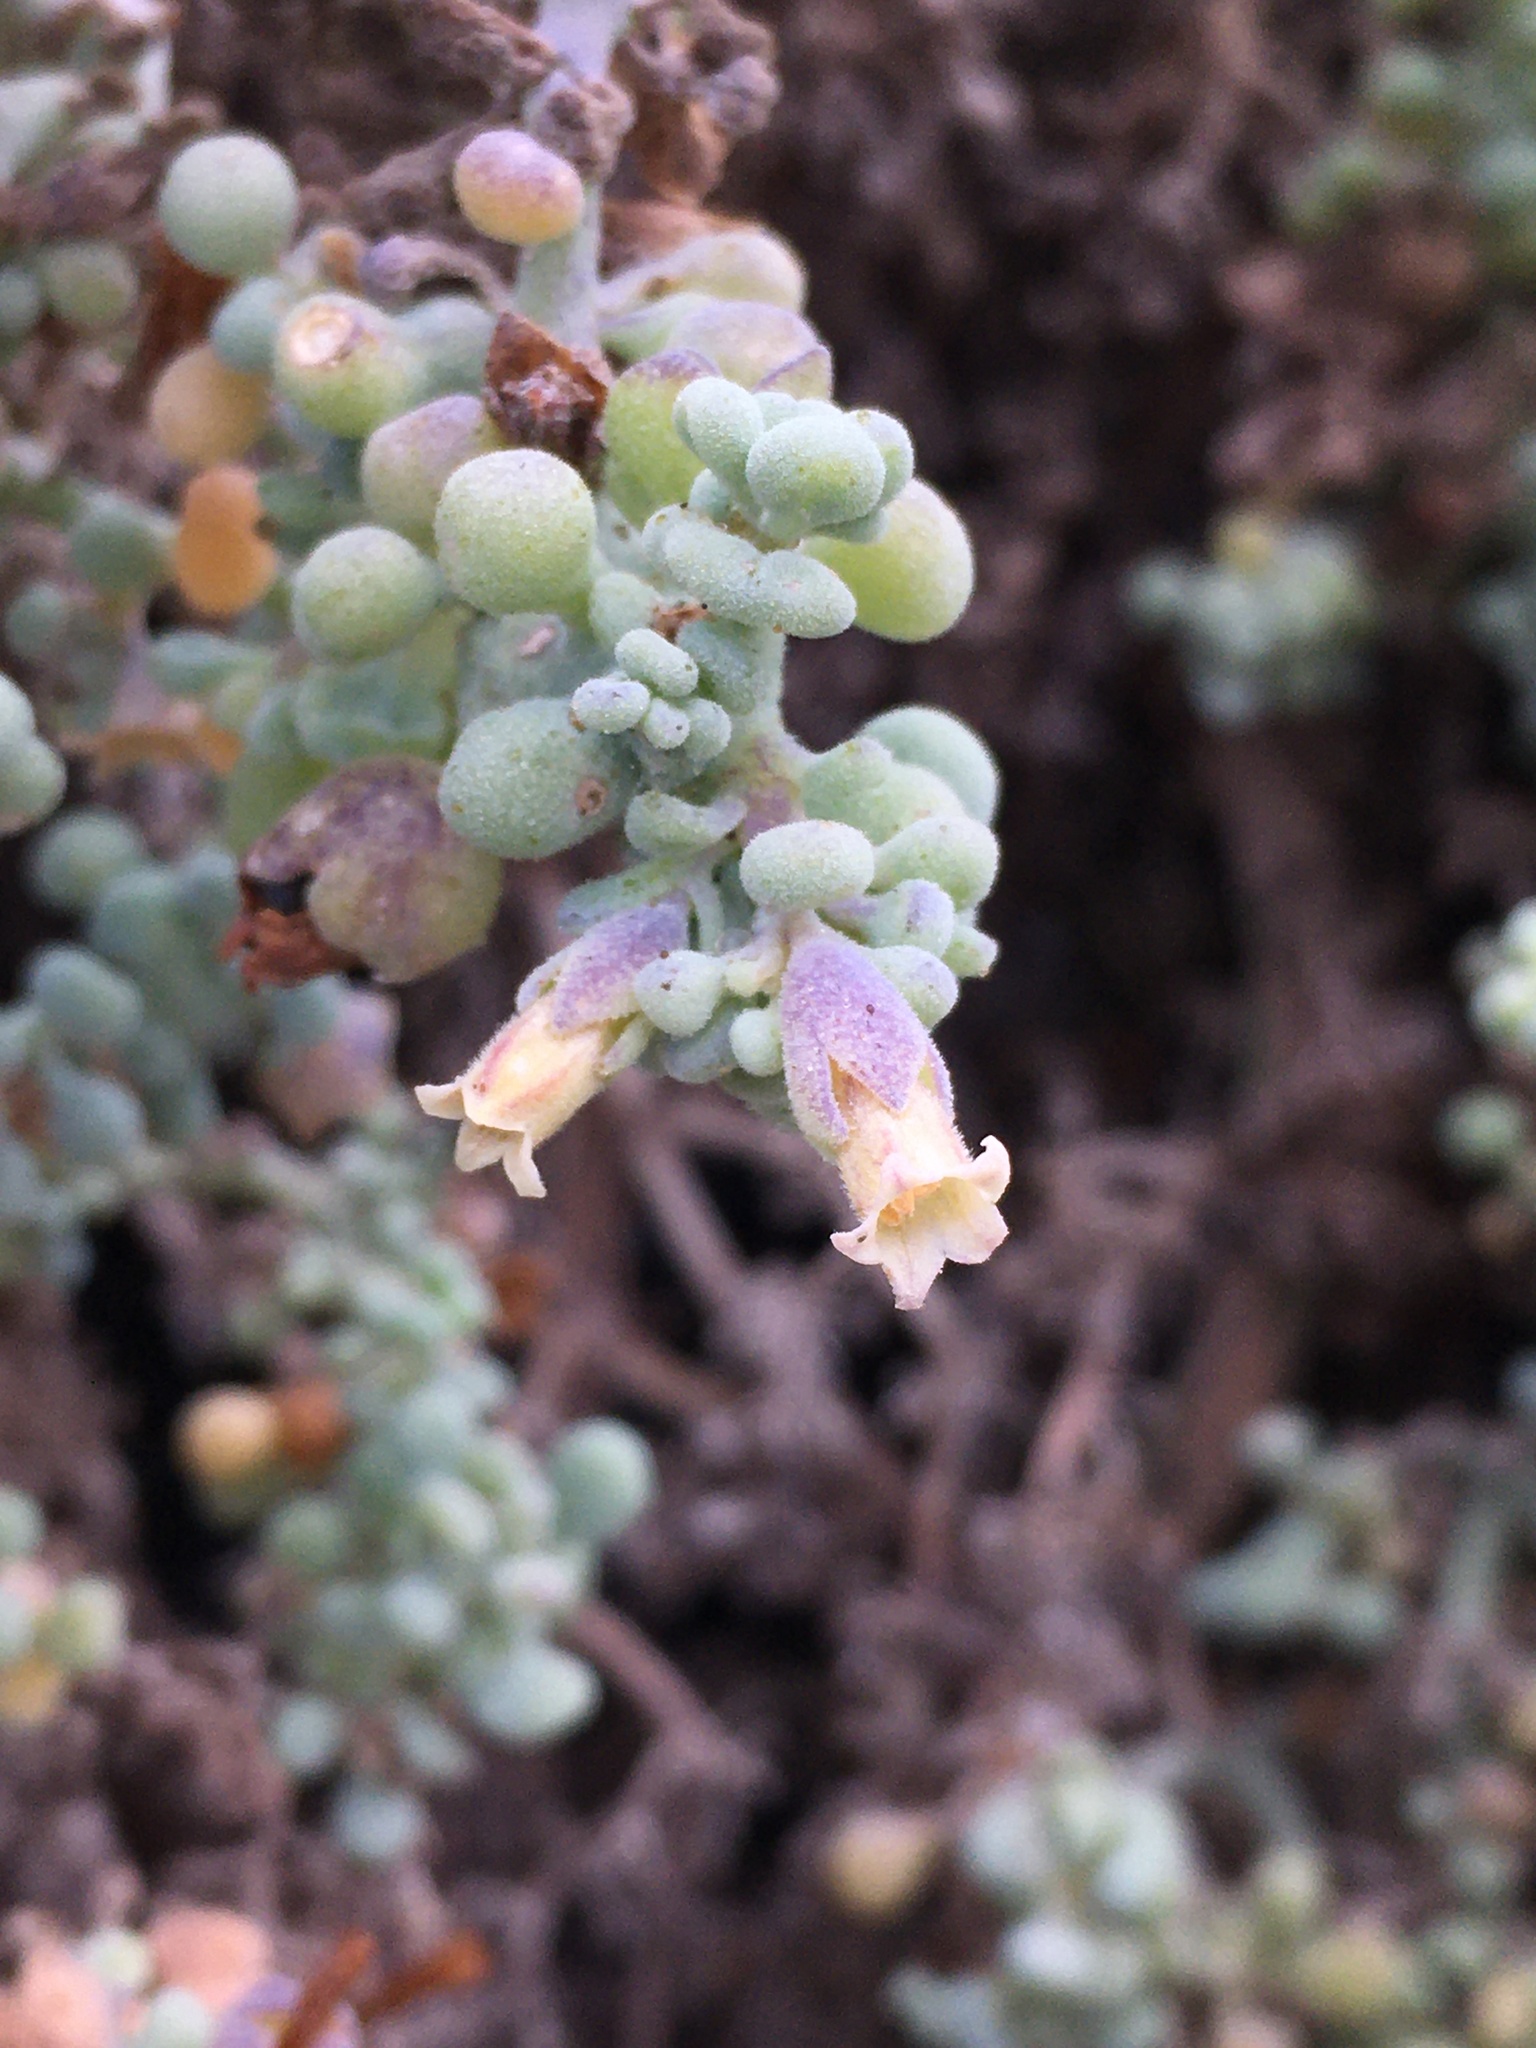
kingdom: Plantae
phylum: Tracheophyta
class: Magnoliopsida
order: Solanales
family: Solanaceae
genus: Nolana
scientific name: Nolana peruviana
